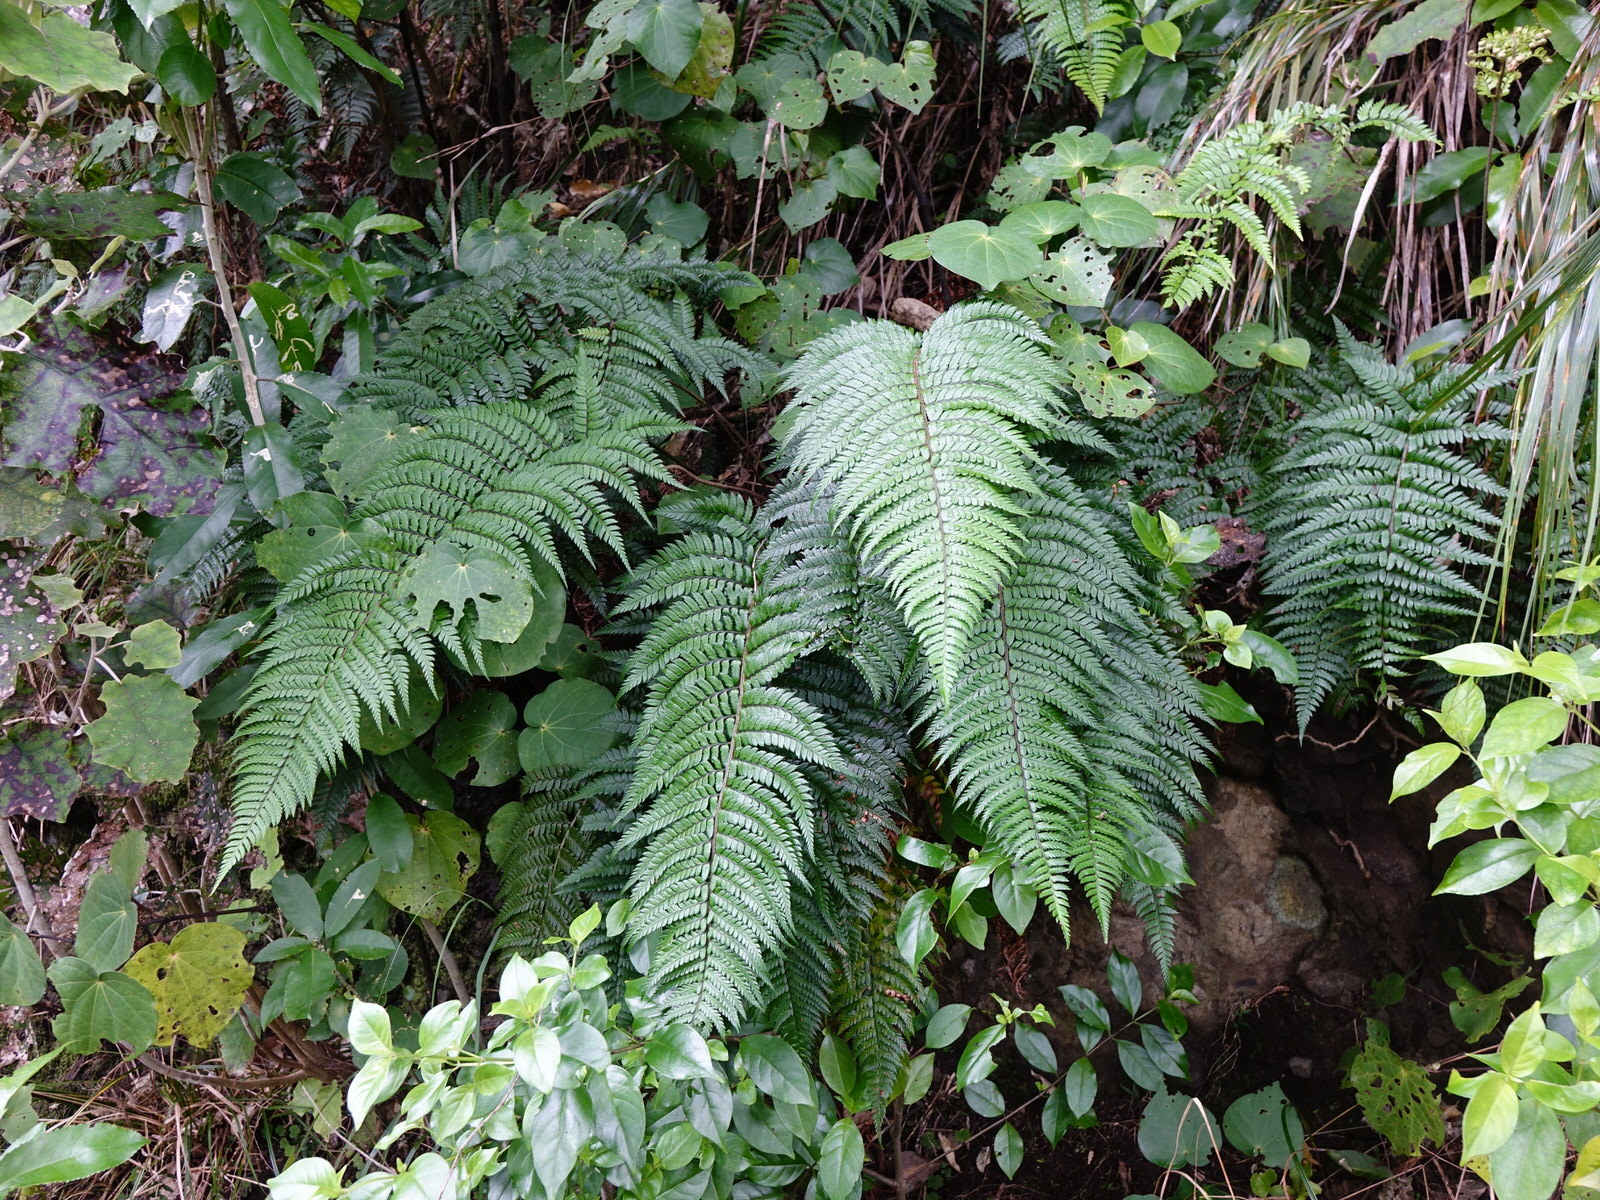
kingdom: Plantae
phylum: Tracheophyta
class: Polypodiopsida
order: Polypodiales
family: Dryopteridaceae
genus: Polystichum
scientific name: Polystichum wawranum
